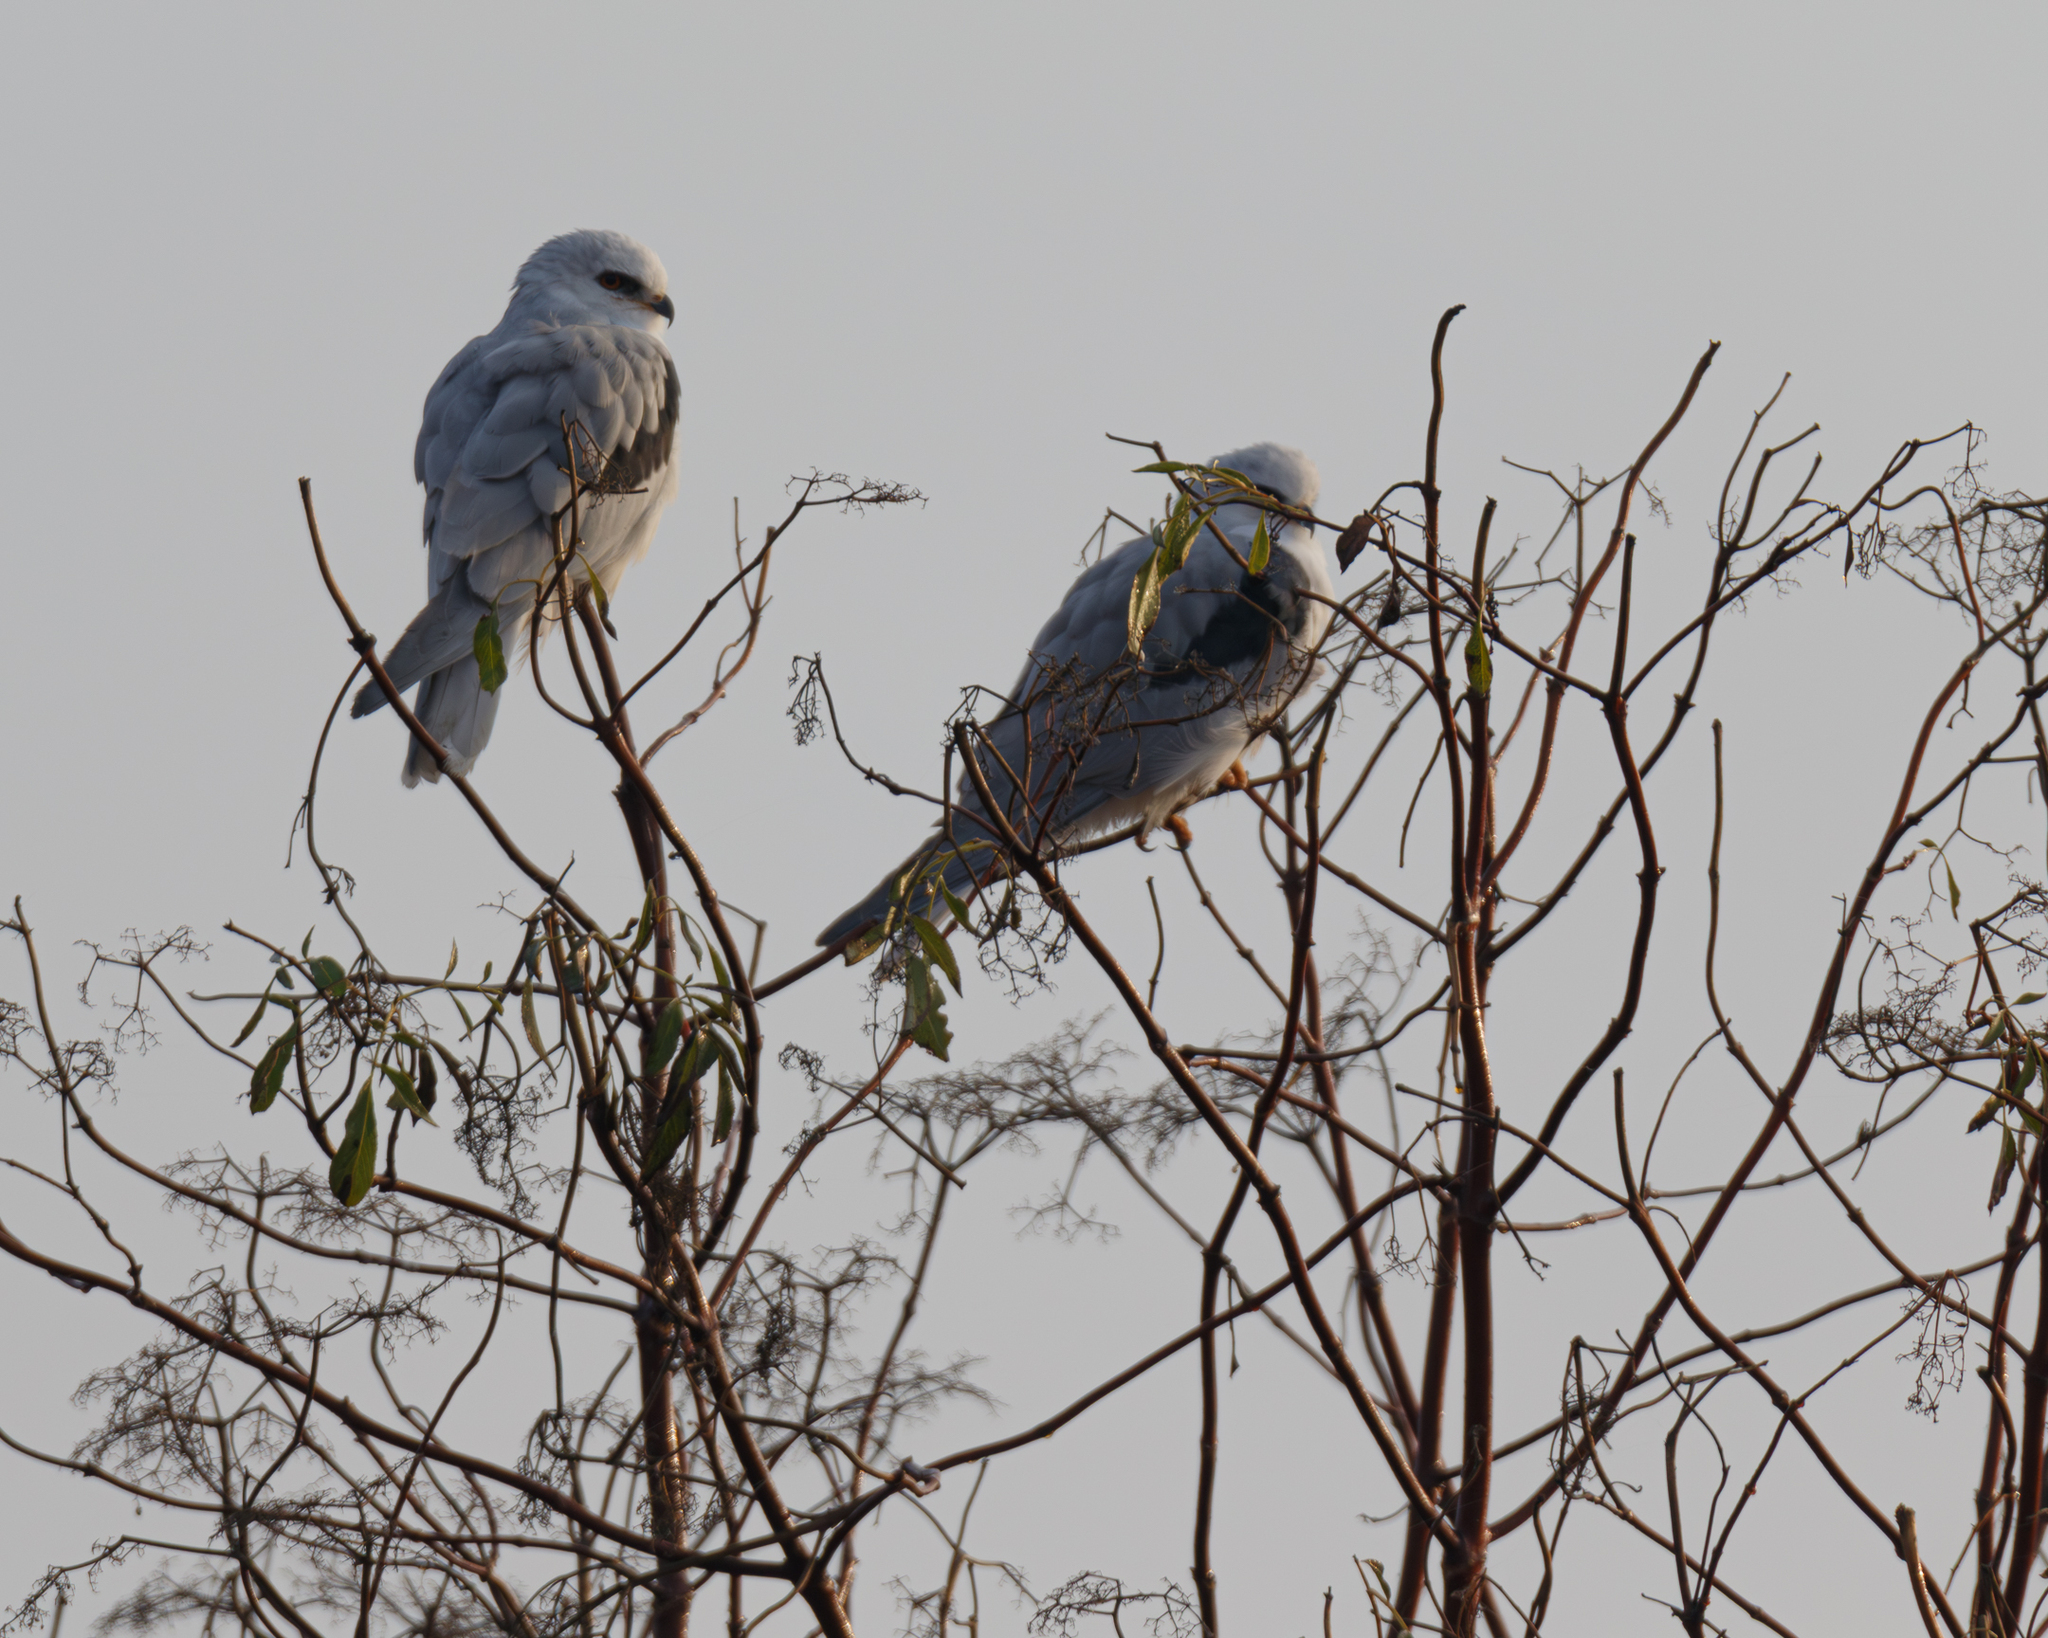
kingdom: Animalia
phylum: Chordata
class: Aves
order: Accipitriformes
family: Accipitridae
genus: Elanus
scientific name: Elanus leucurus
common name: White-tailed kite
